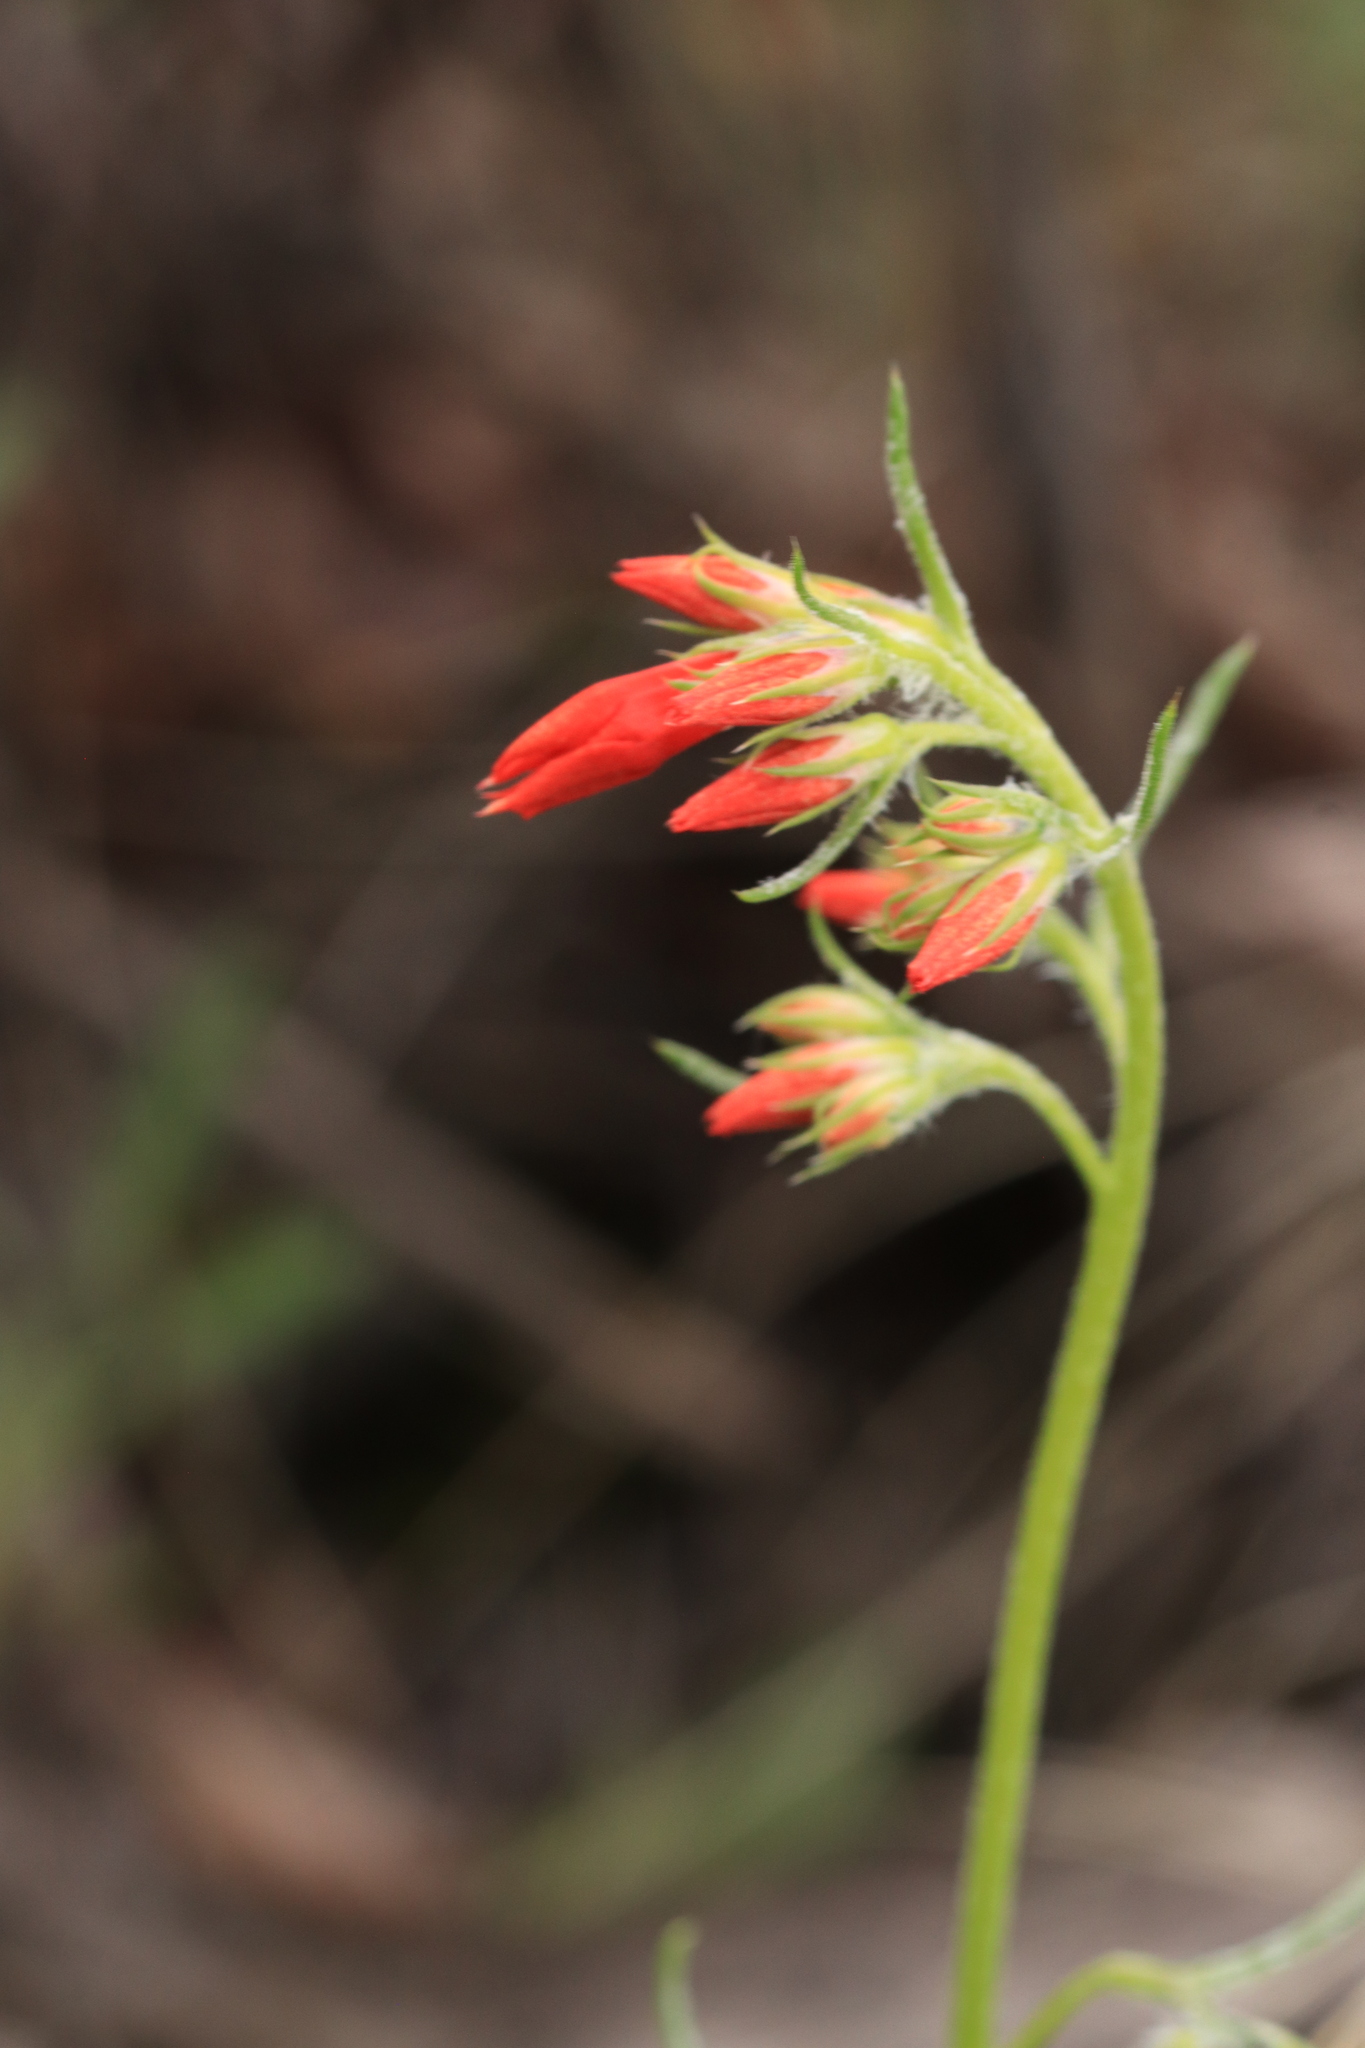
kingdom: Plantae
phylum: Tracheophyta
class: Magnoliopsida
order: Ericales
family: Polemoniaceae
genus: Ipomopsis
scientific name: Ipomopsis aggregata
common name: Scarlet gilia
